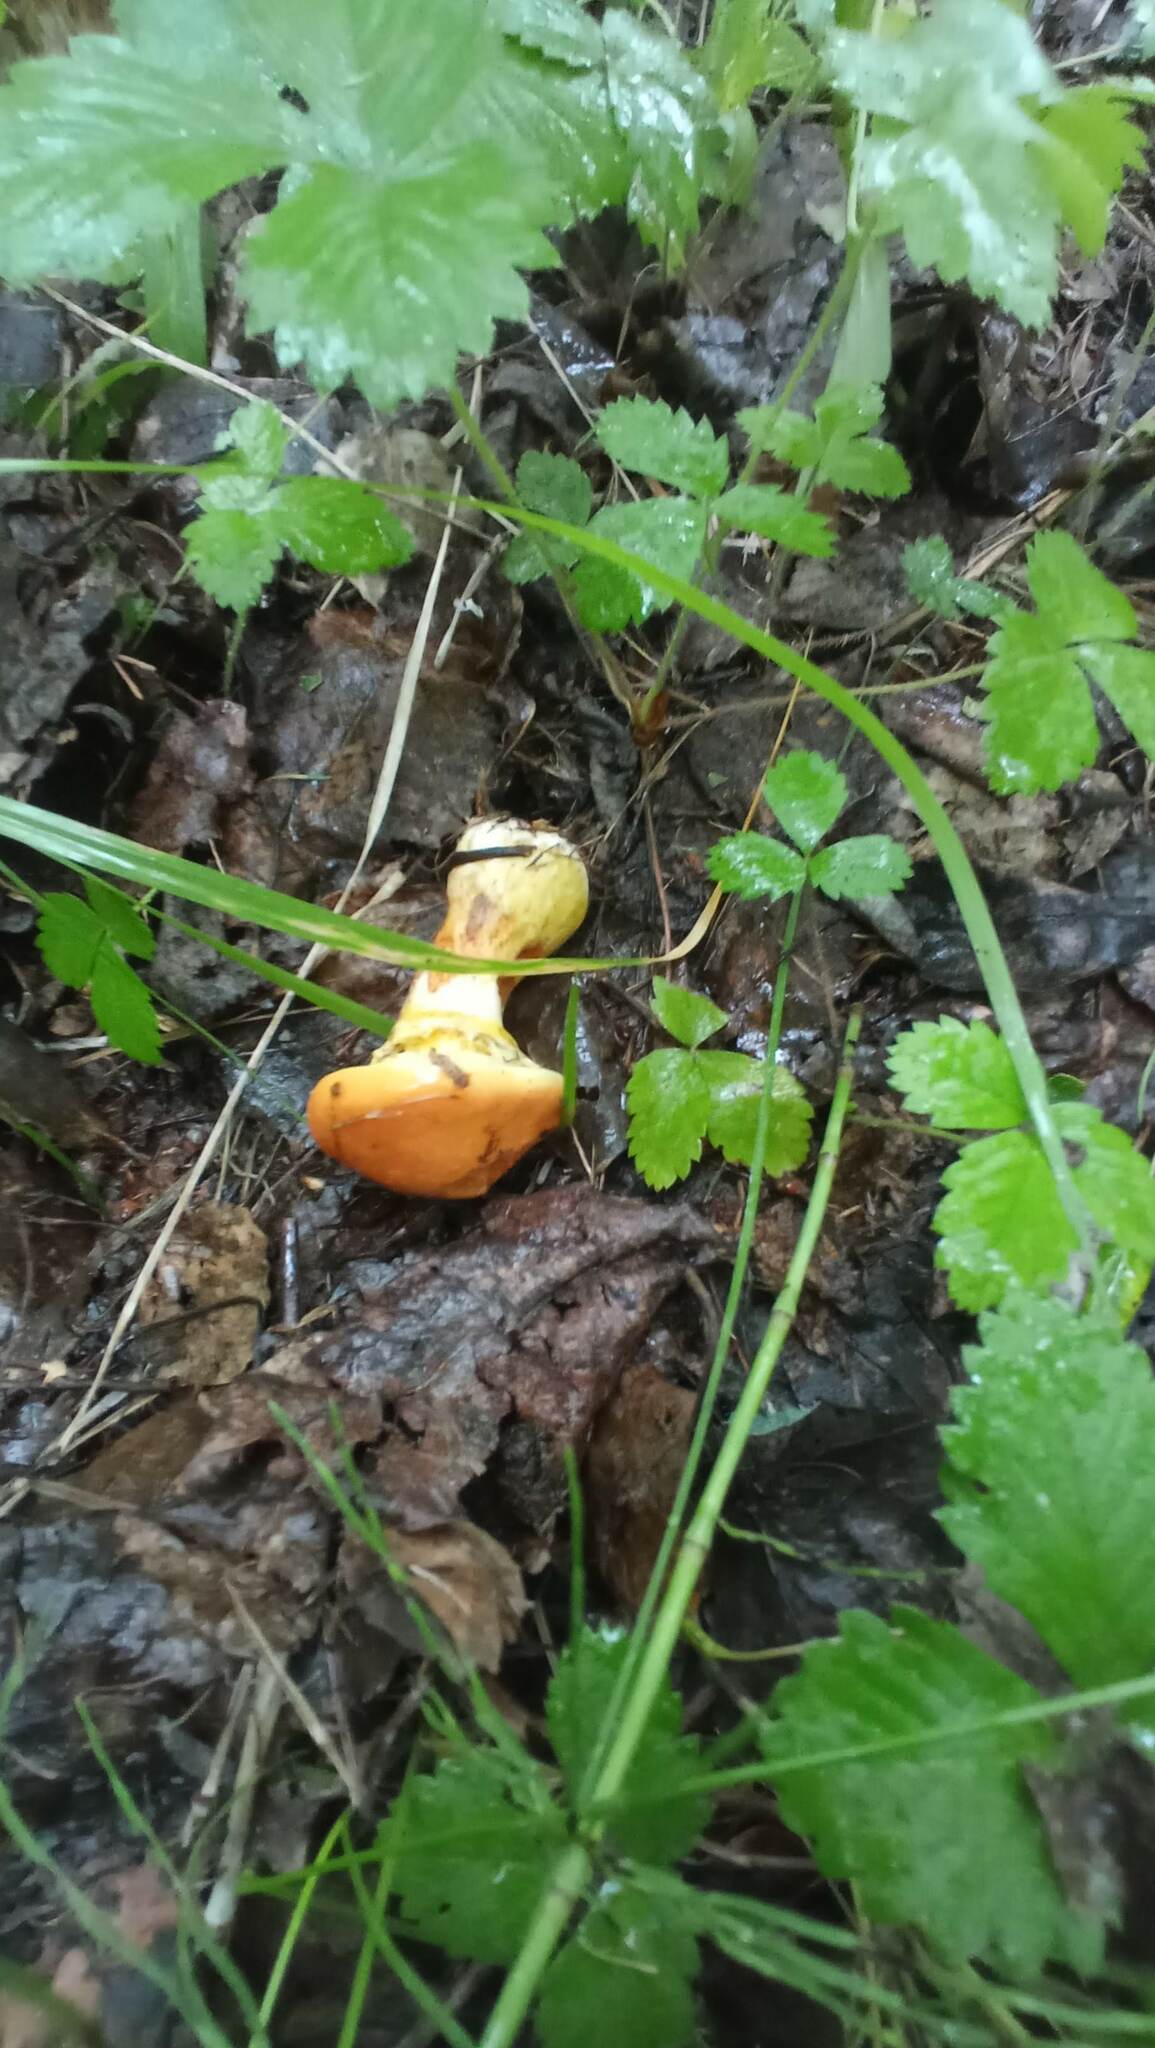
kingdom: Fungi
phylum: Basidiomycota
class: Agaricomycetes
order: Boletales
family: Suillaceae
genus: Suillus
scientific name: Suillus grevillei
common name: Larch bolete
